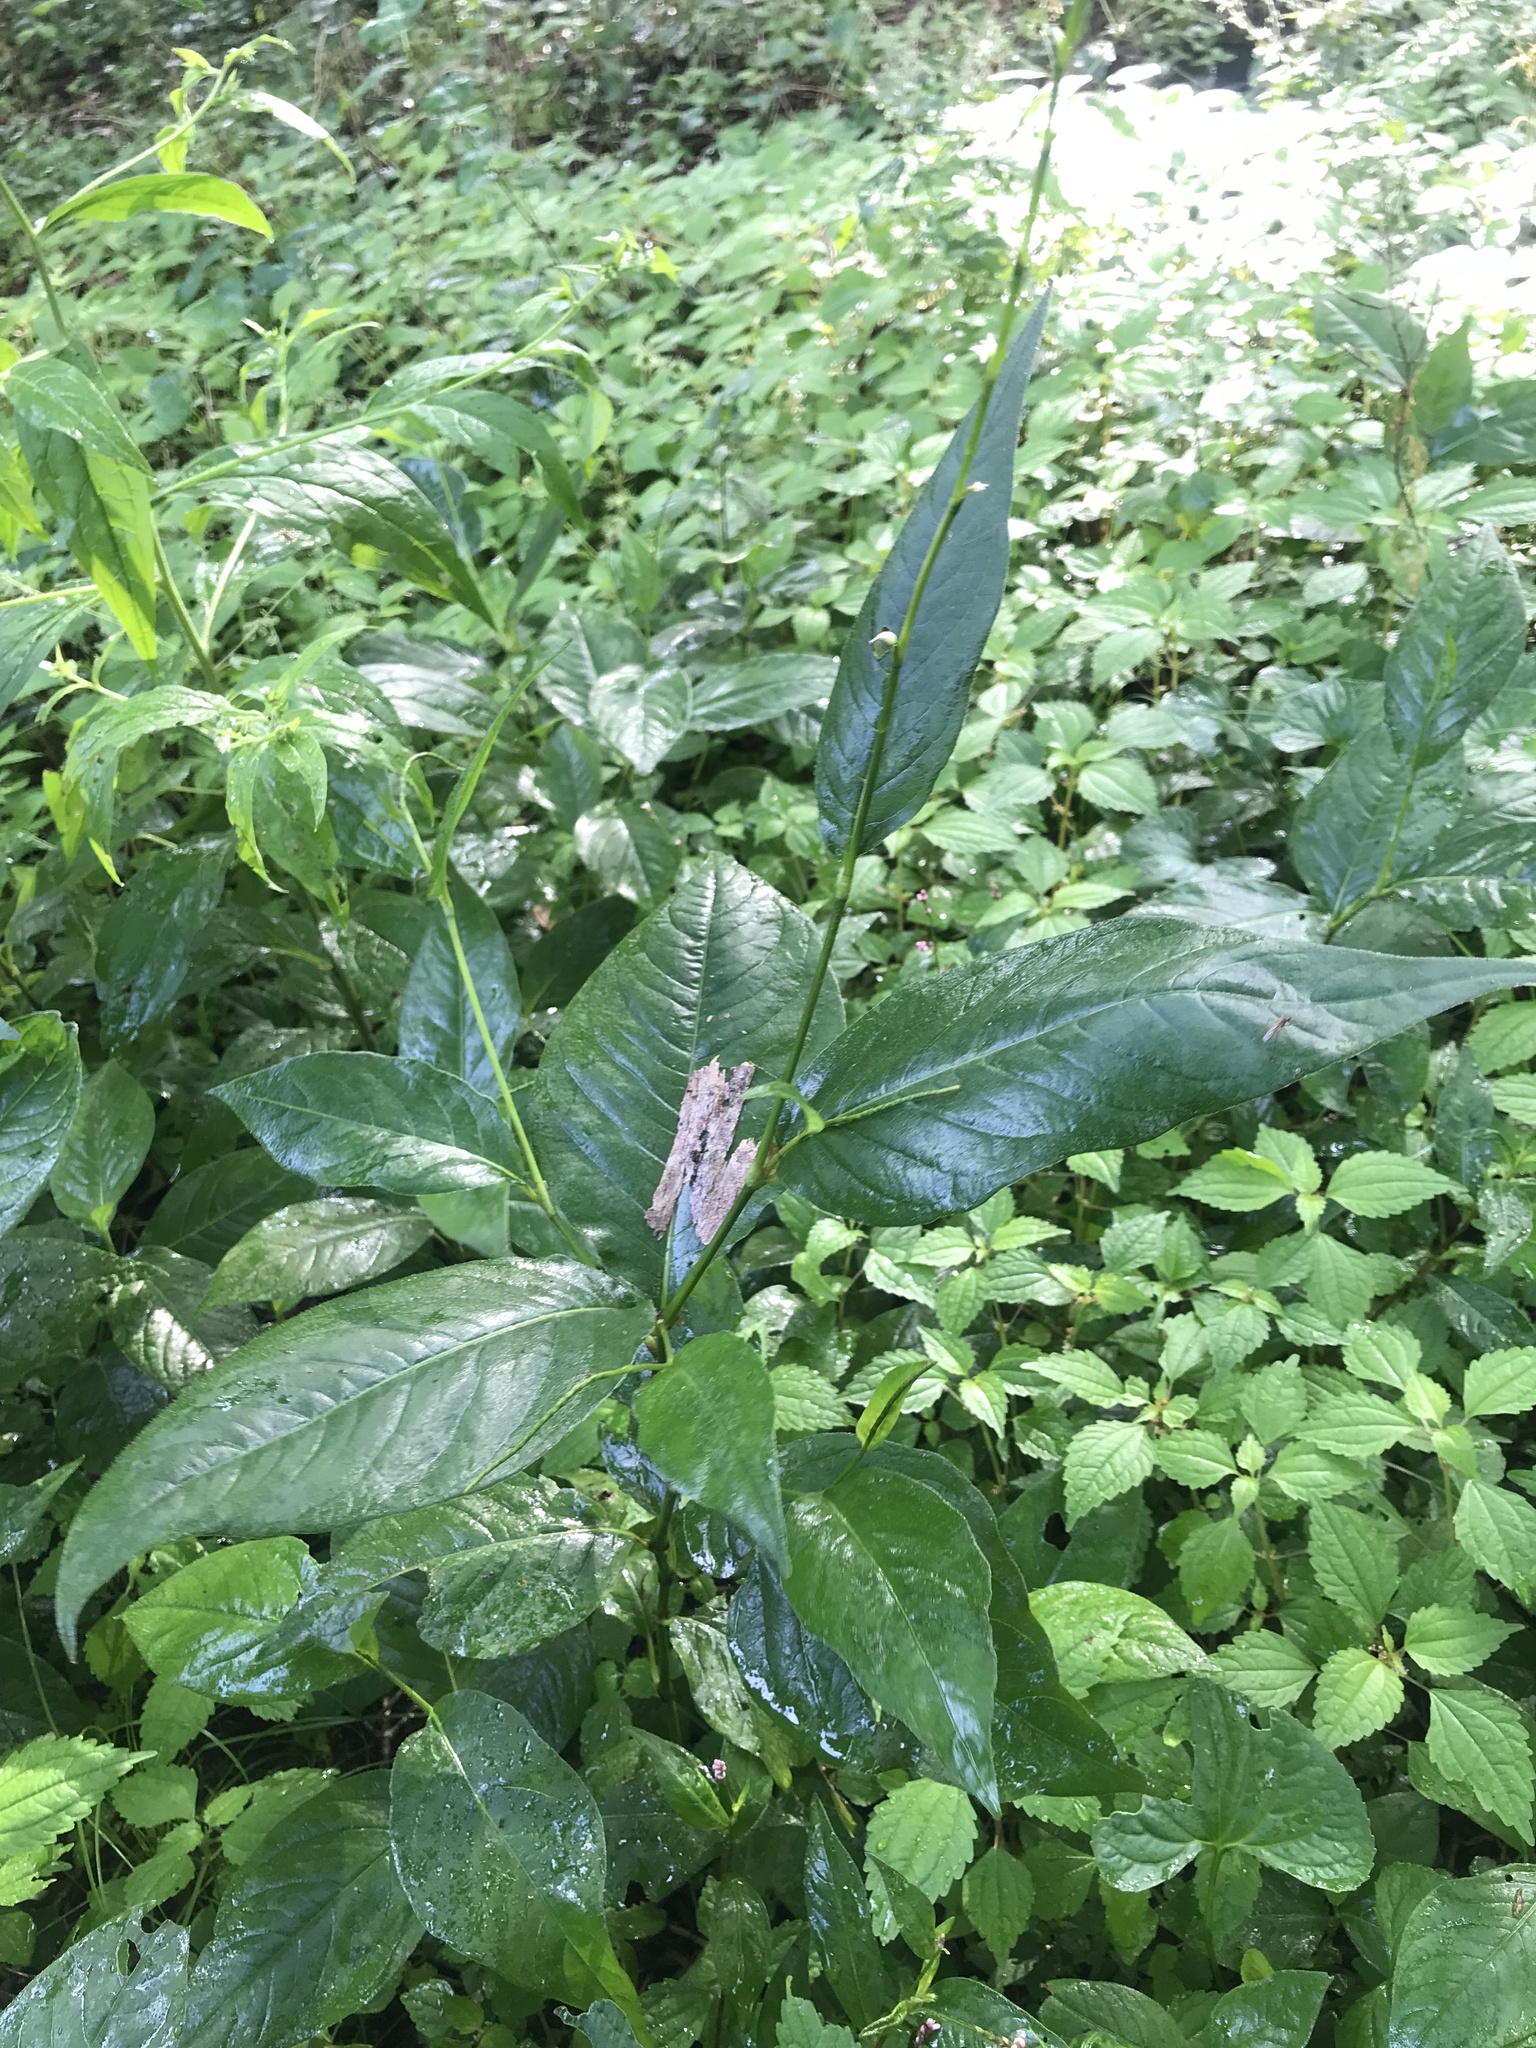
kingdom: Plantae
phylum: Tracheophyta
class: Magnoliopsida
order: Caryophyllales
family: Polygonaceae
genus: Persicaria
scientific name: Persicaria virginiana
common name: Jumpseed
